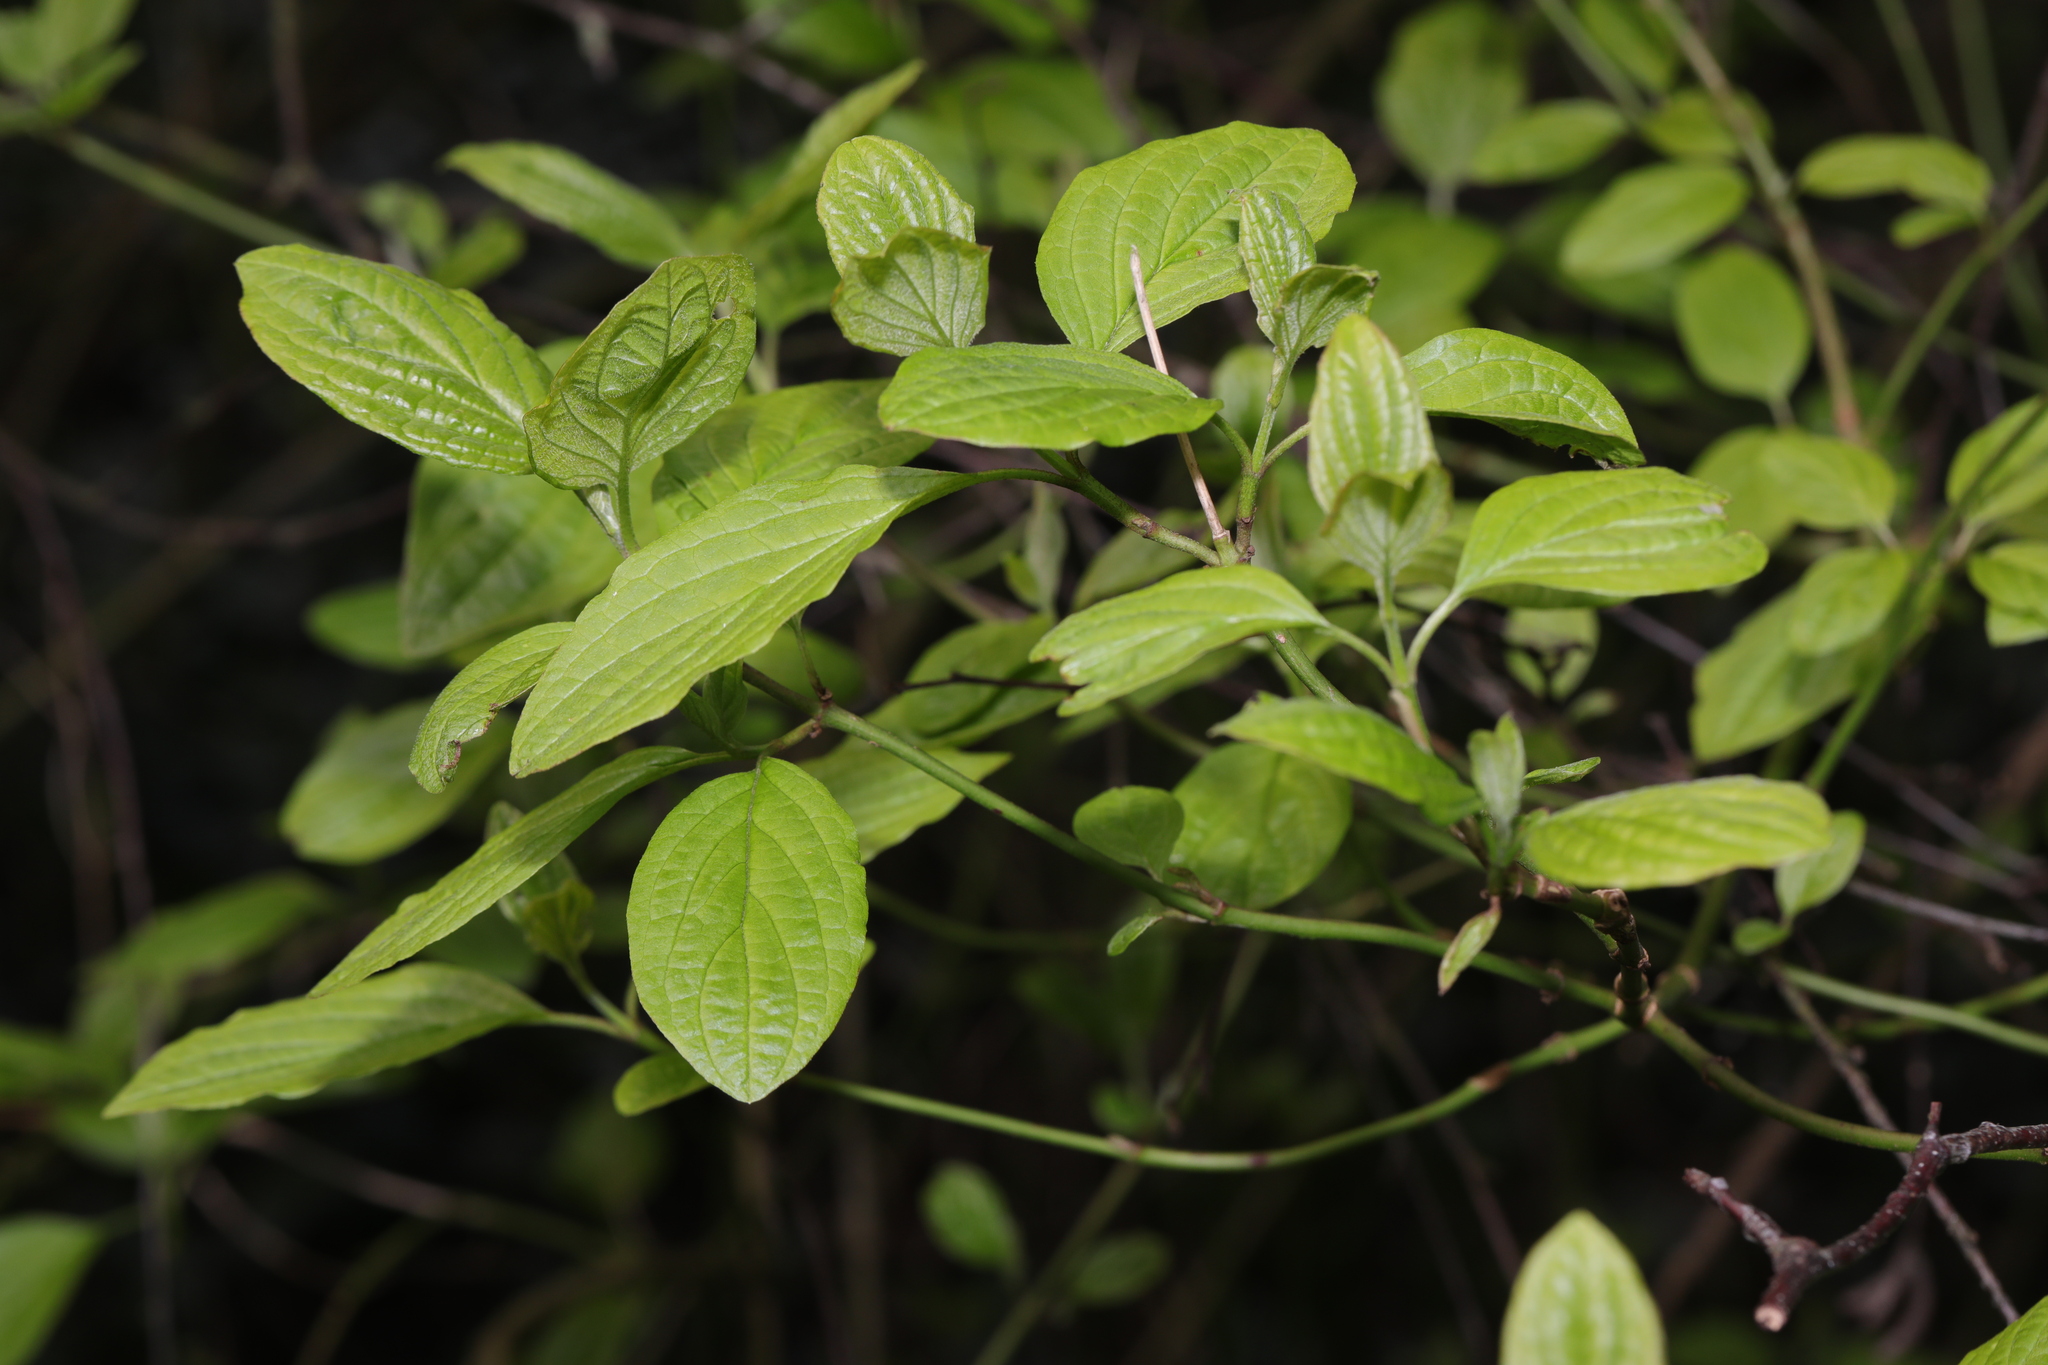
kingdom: Plantae
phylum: Tracheophyta
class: Magnoliopsida
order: Cornales
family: Cornaceae
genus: Cornus
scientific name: Cornus sanguinea
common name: Dogwood
